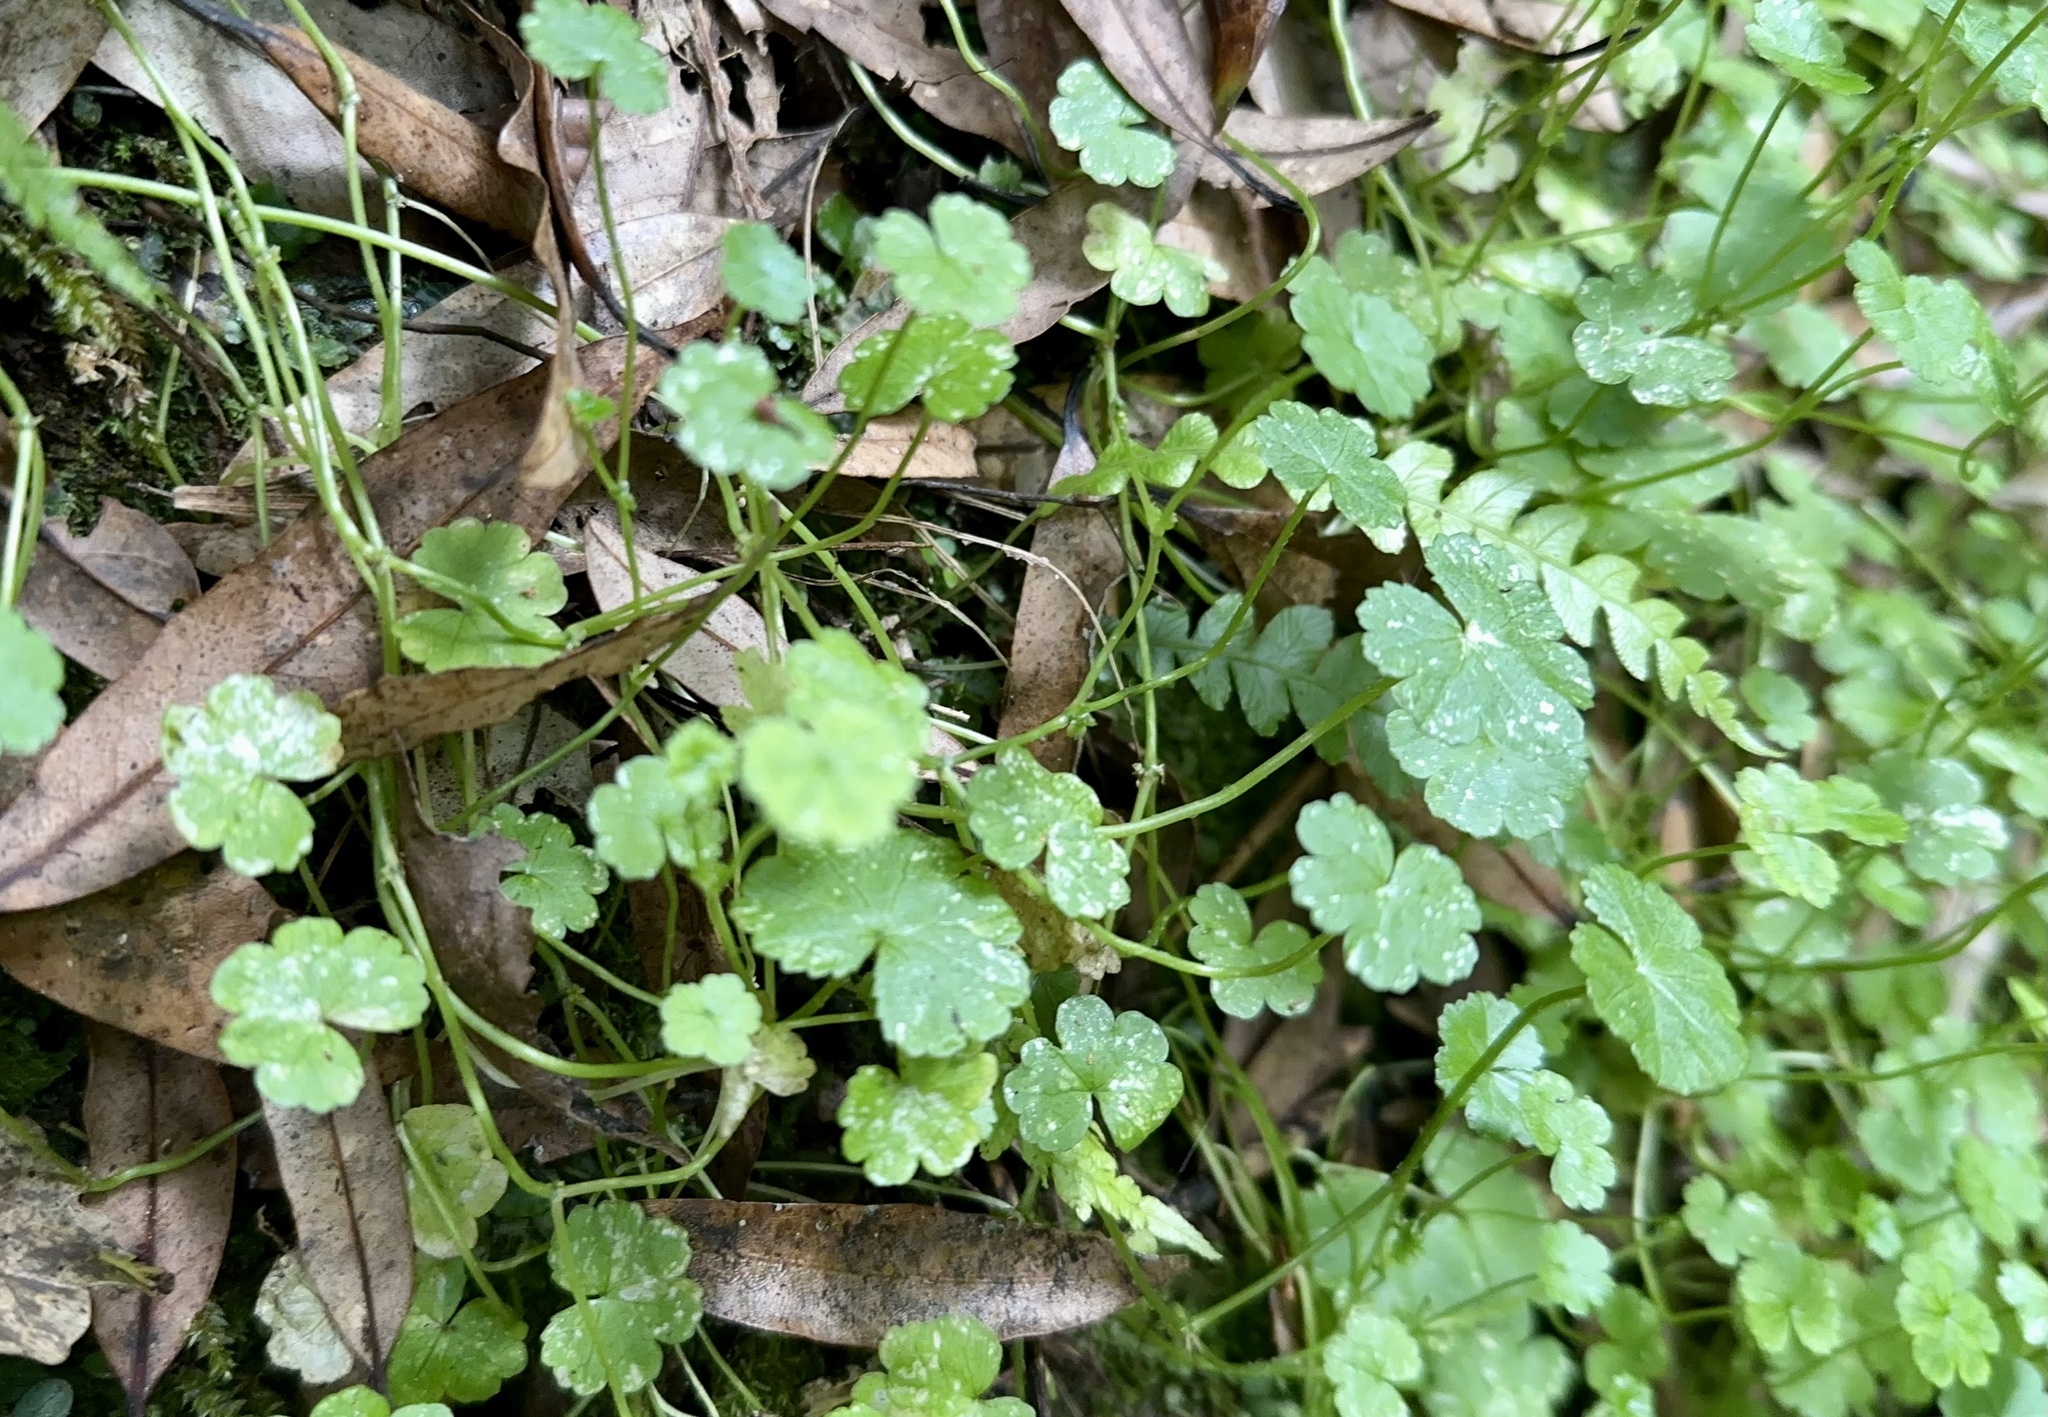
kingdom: Plantae
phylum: Tracheophyta
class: Magnoliopsida
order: Apiales
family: Araliaceae
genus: Hydrocotyle
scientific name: Hydrocotyle heteromeria
